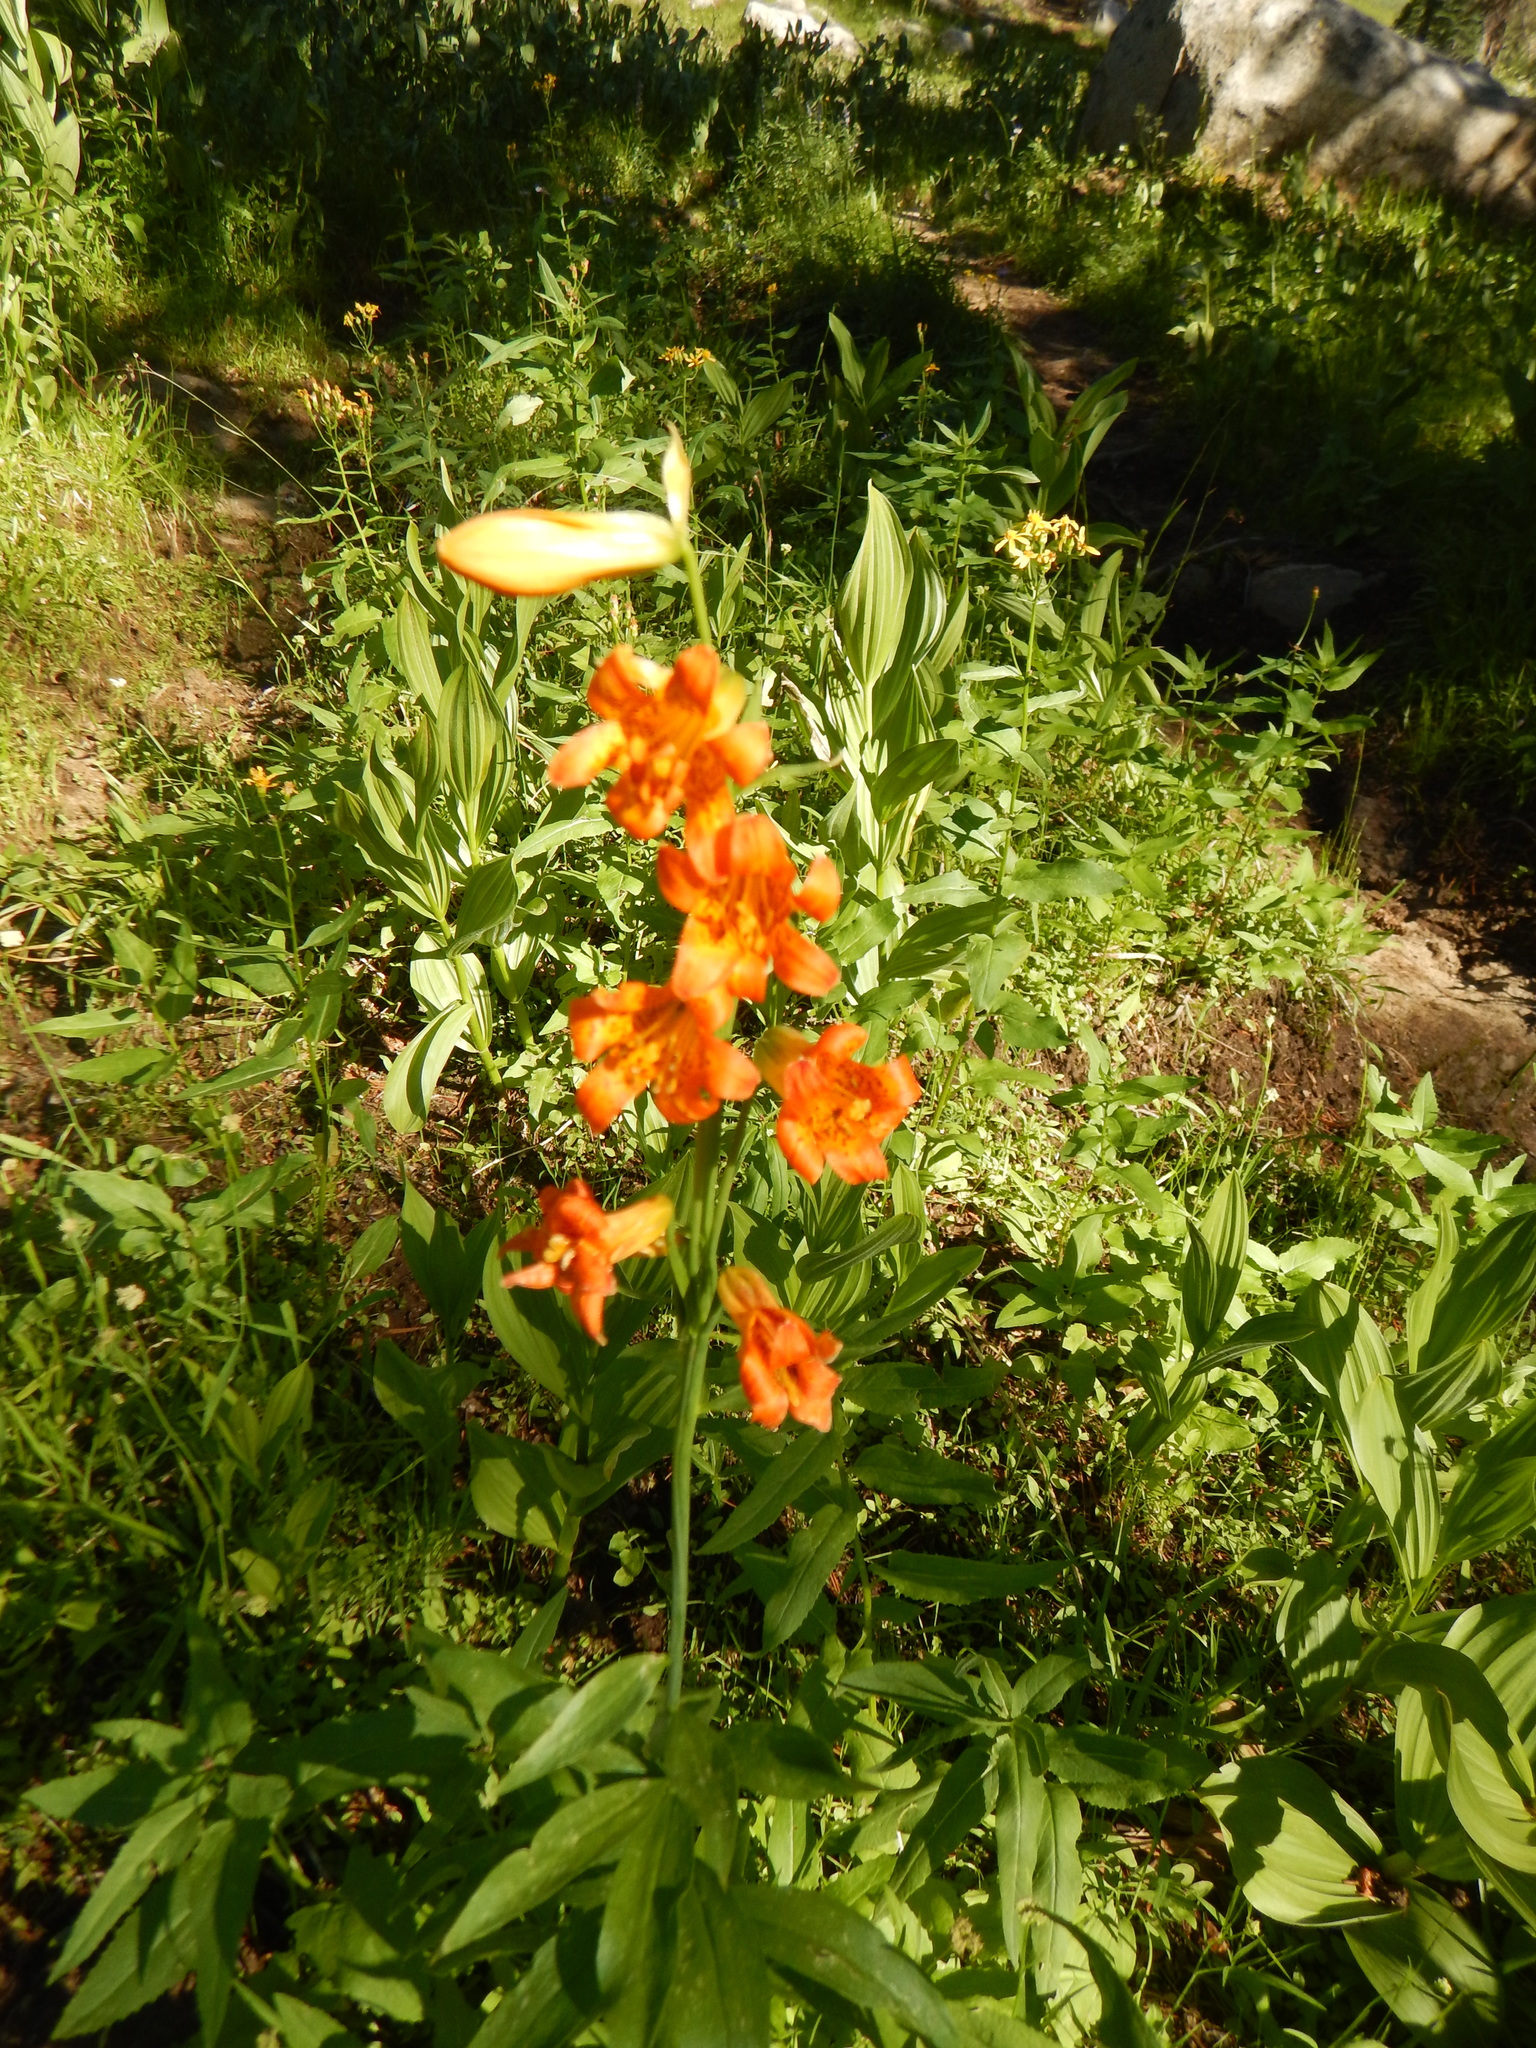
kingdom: Plantae
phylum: Tracheophyta
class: Liliopsida
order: Liliales
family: Liliaceae
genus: Lilium
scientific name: Lilium parvum
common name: Alpine lily
